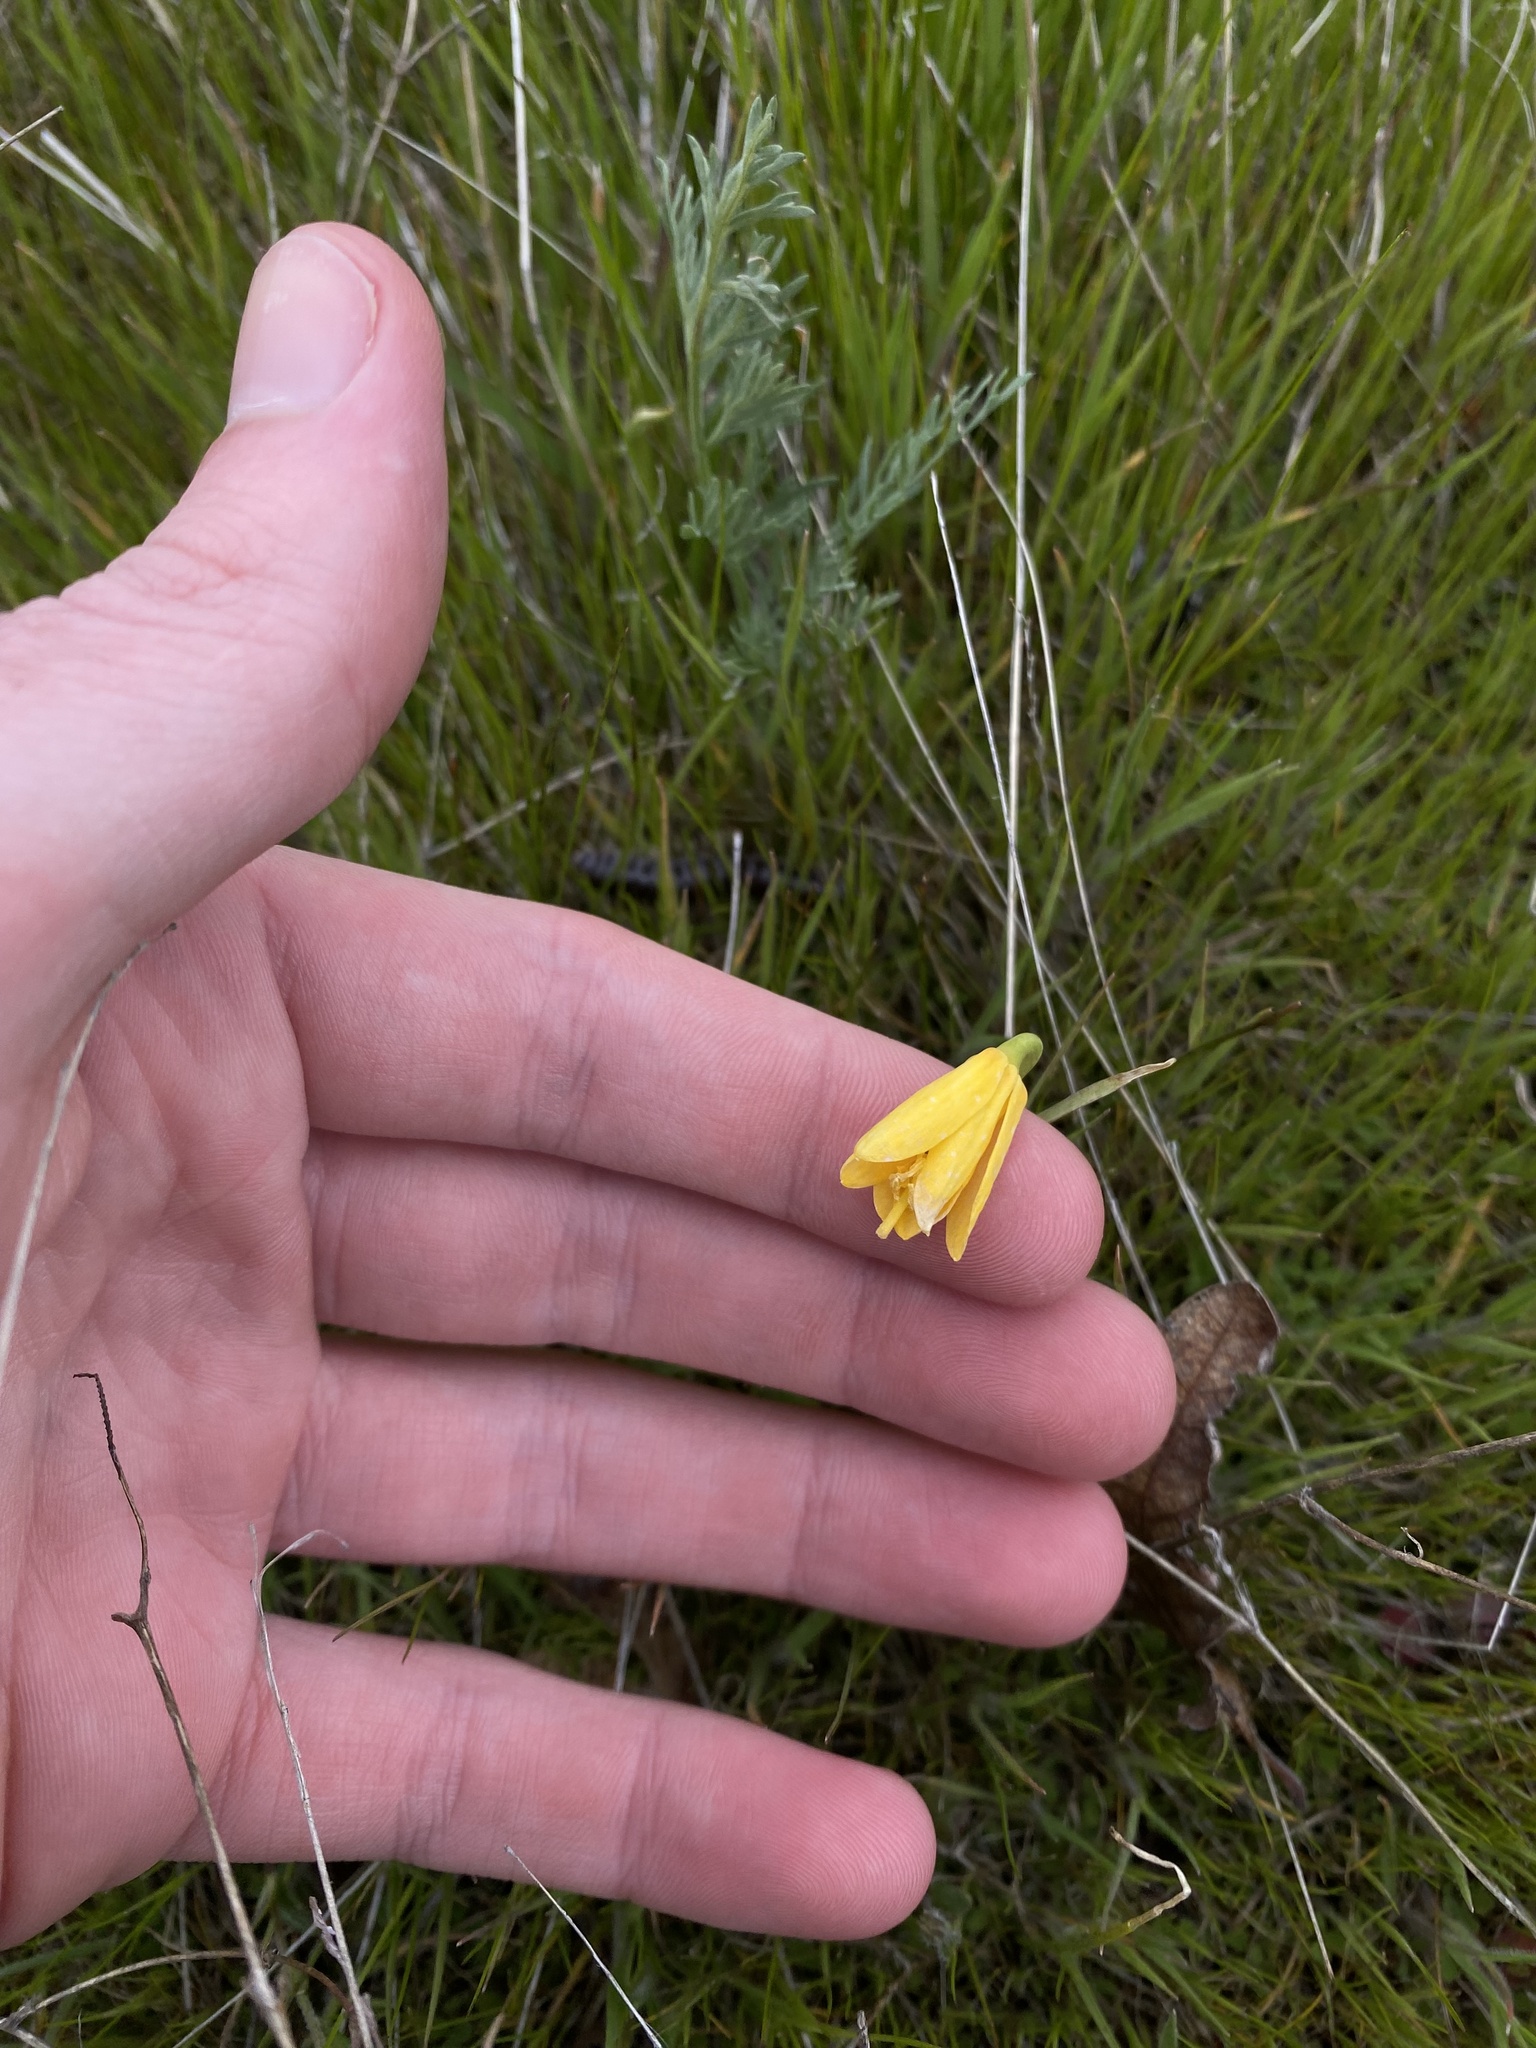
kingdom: Plantae
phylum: Tracheophyta
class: Liliopsida
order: Liliales
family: Liliaceae
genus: Fritillaria
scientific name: Fritillaria pudica
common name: Yellow fritillary
